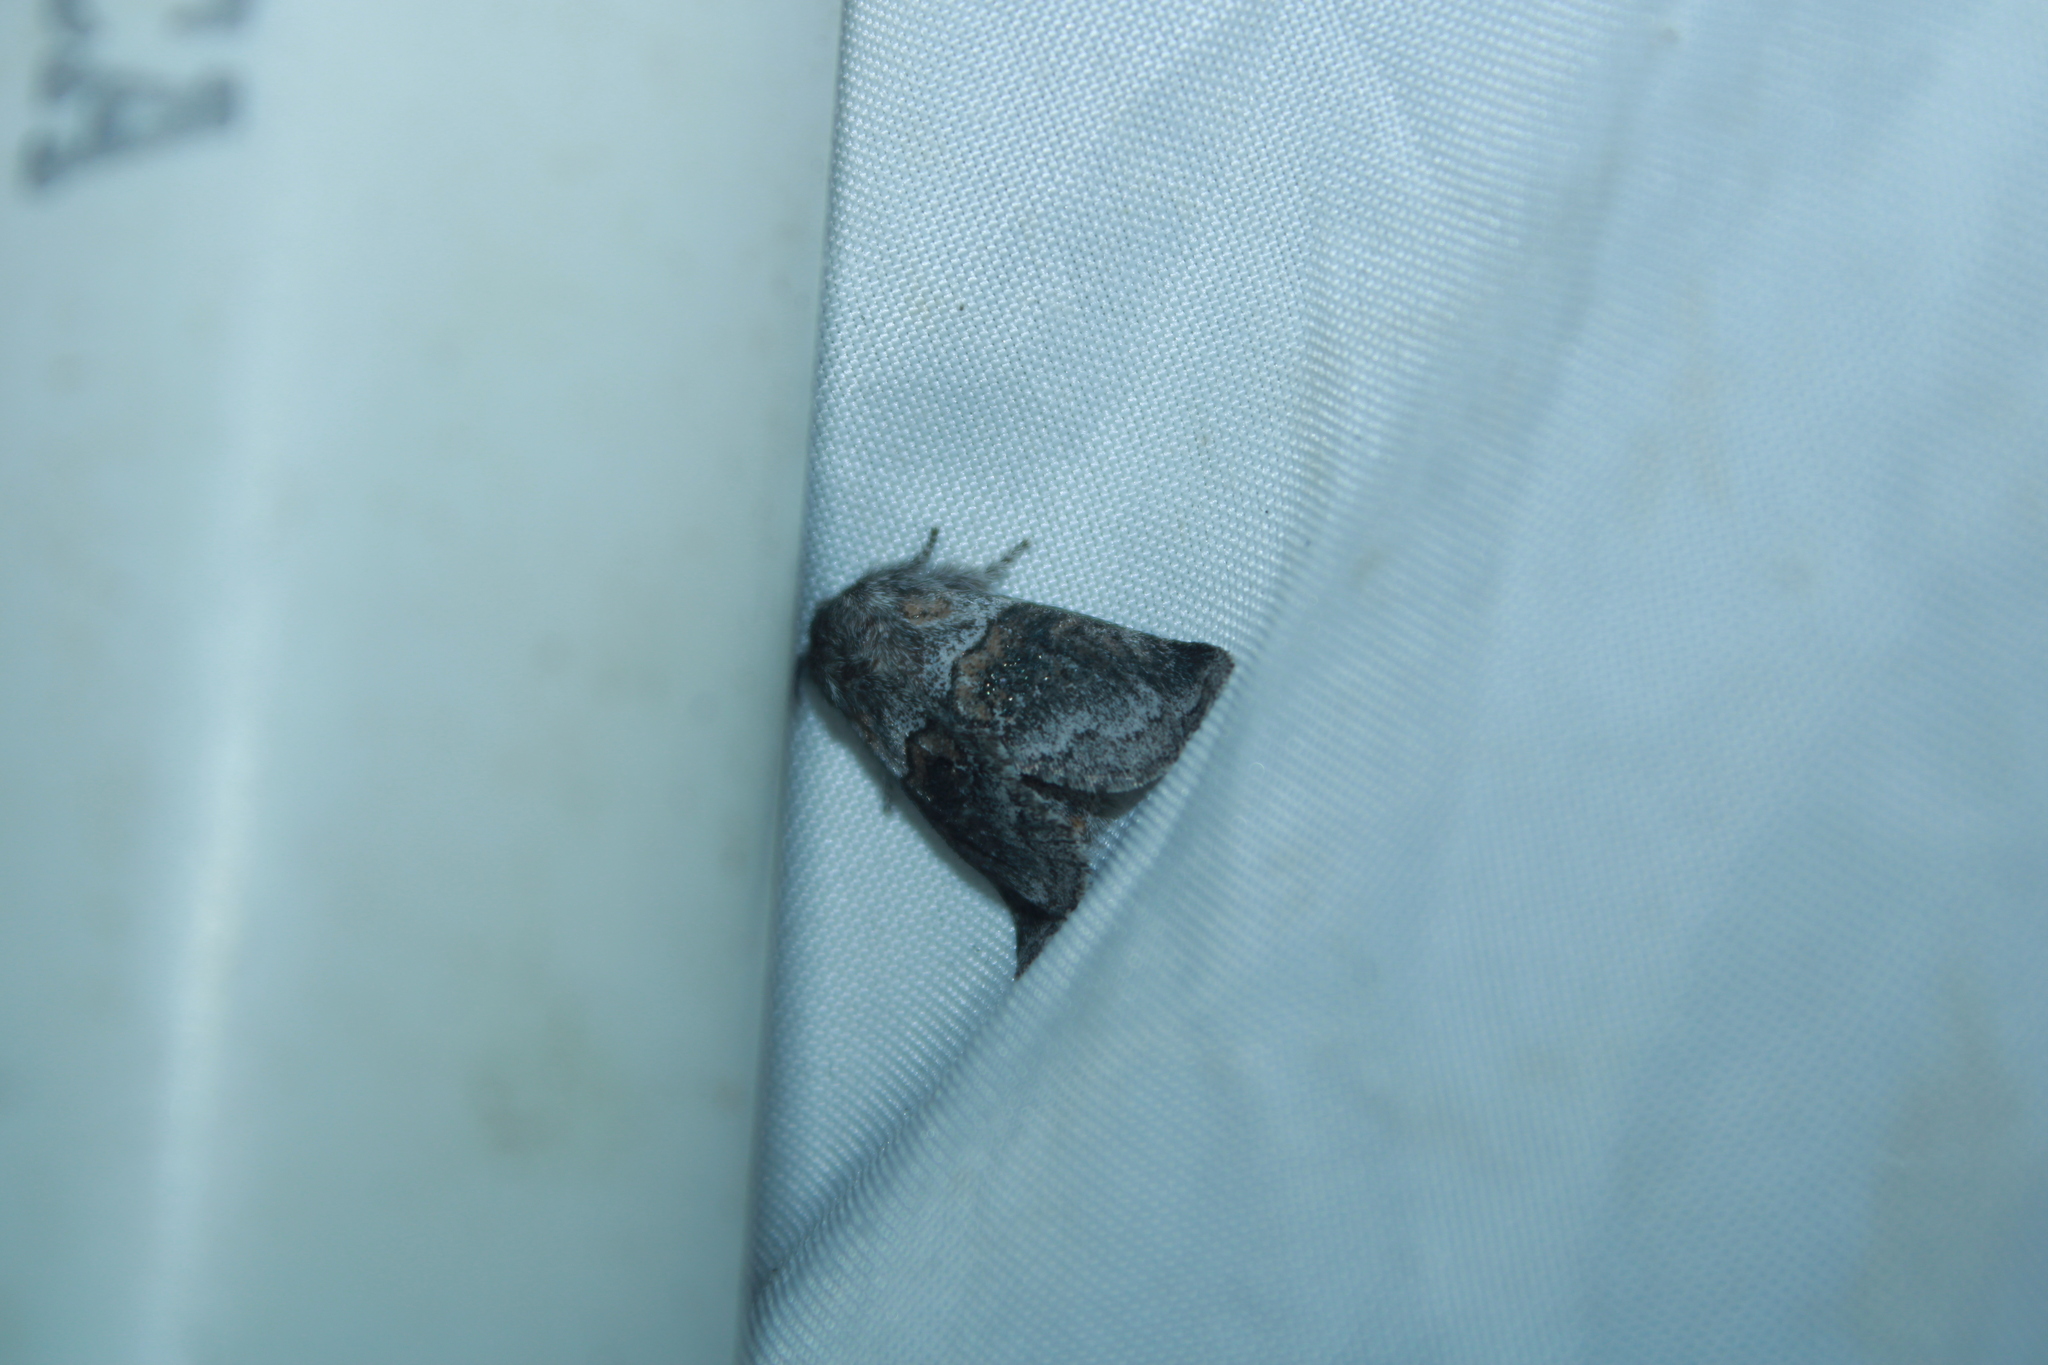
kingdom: Animalia
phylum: Arthropoda
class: Insecta
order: Lepidoptera
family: Notodontidae
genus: Gluphisia
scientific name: Gluphisia septentrionis
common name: Common gluphisia
